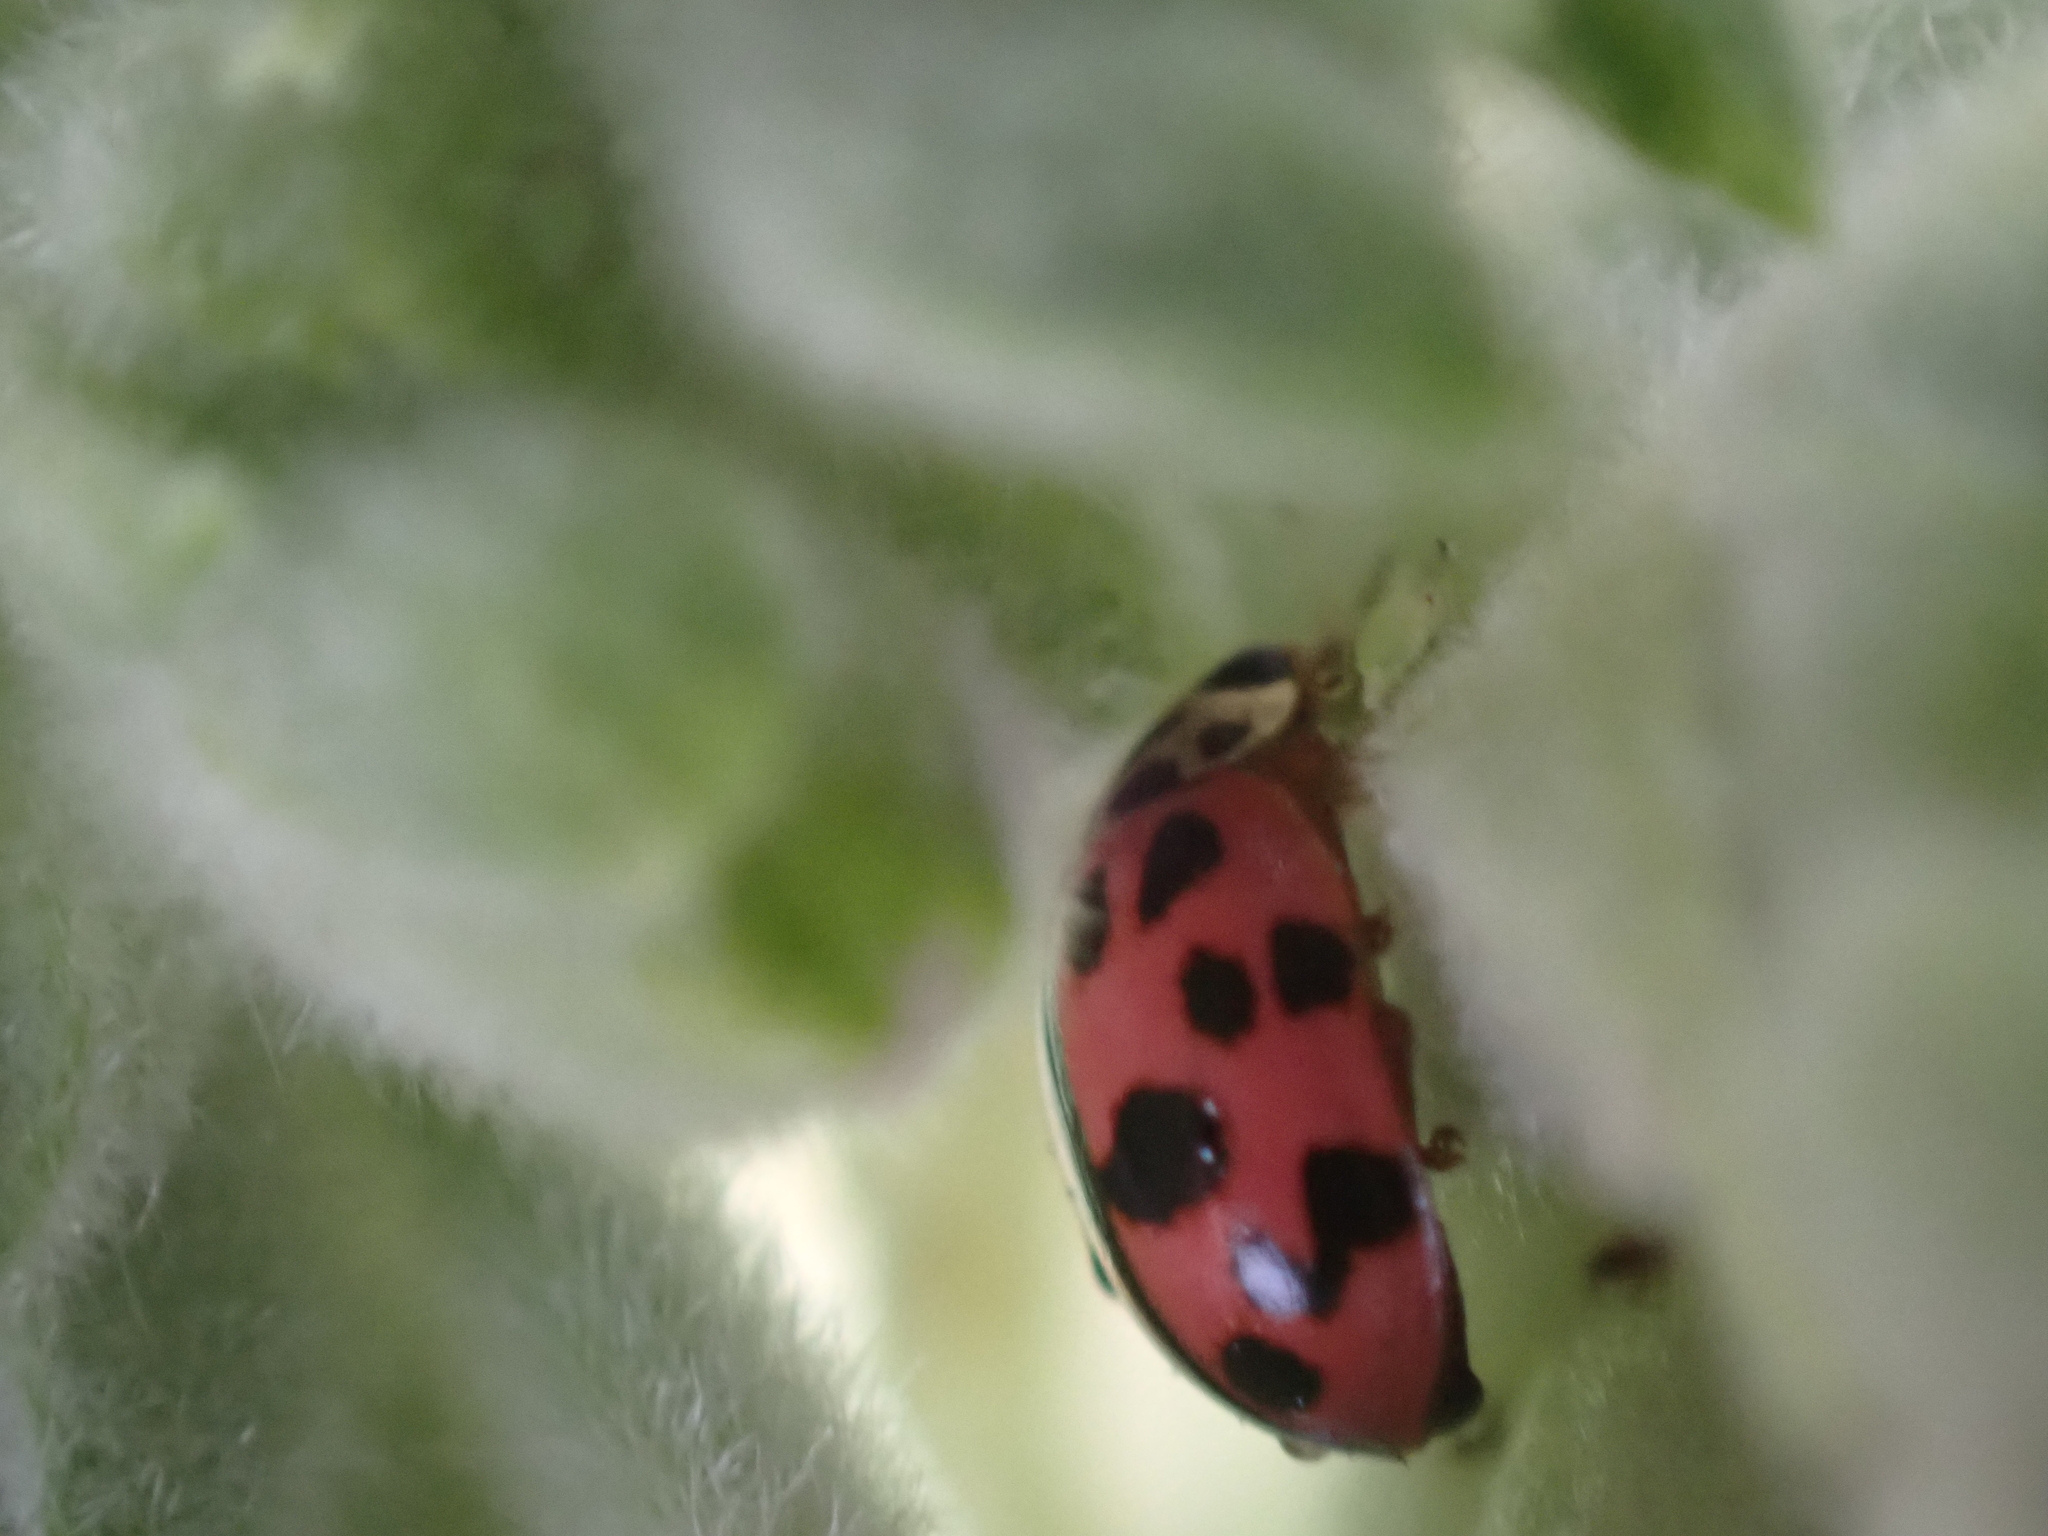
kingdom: Animalia
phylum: Arthropoda
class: Insecta
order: Coleoptera
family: Coccinellidae
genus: Oenopia
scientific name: Oenopia conglobata
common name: Ladybird beetle
